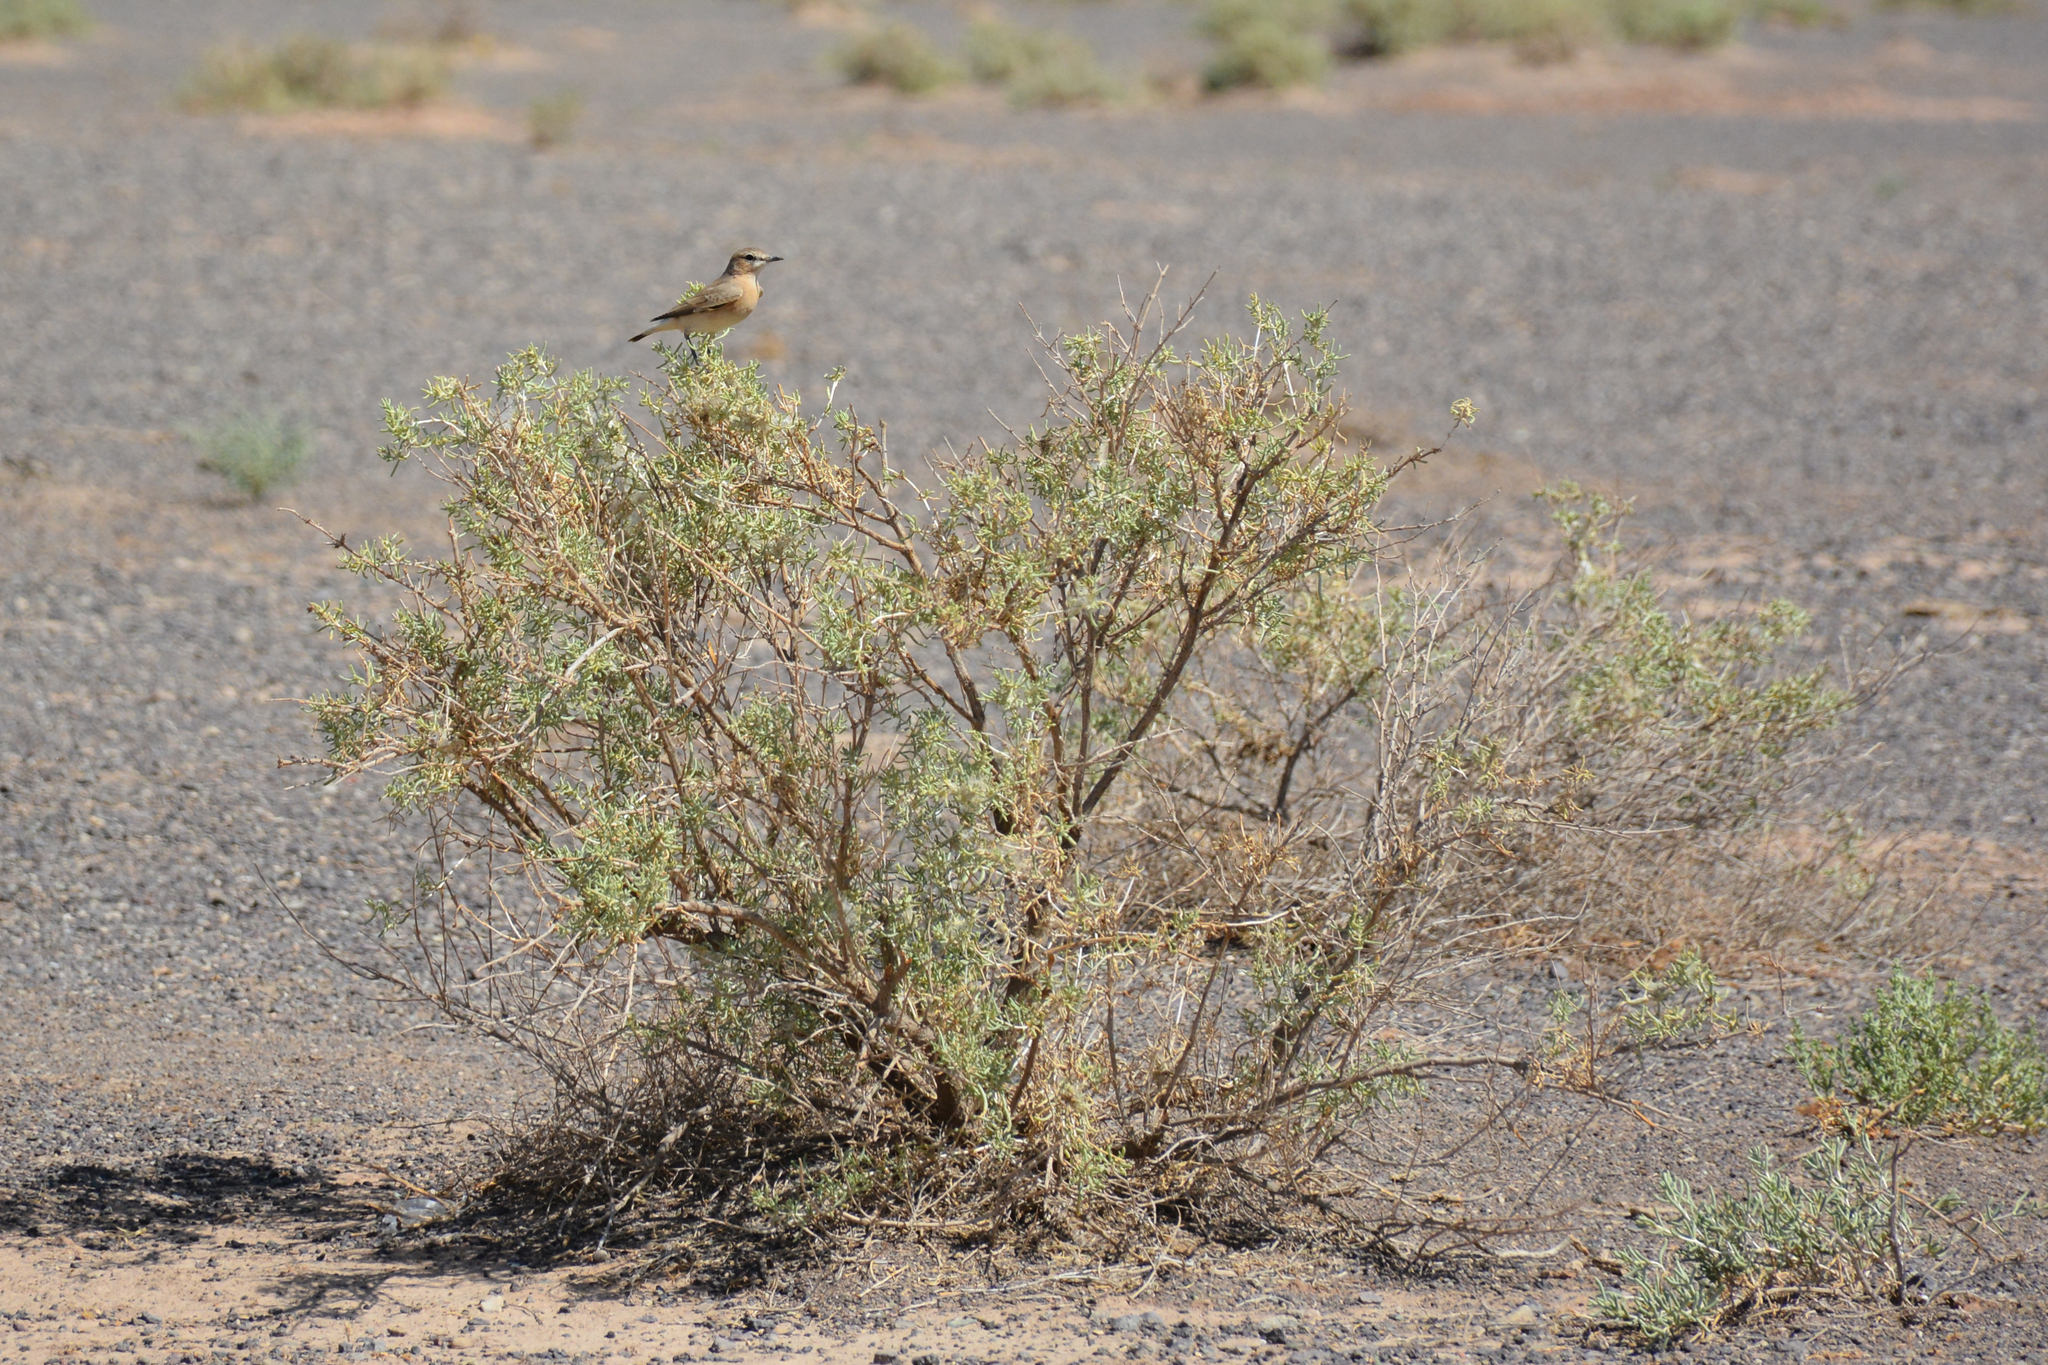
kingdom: Animalia
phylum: Chordata
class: Aves
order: Passeriformes
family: Muscicapidae
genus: Oenanthe
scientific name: Oenanthe isabellina
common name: Isabelline wheatear
